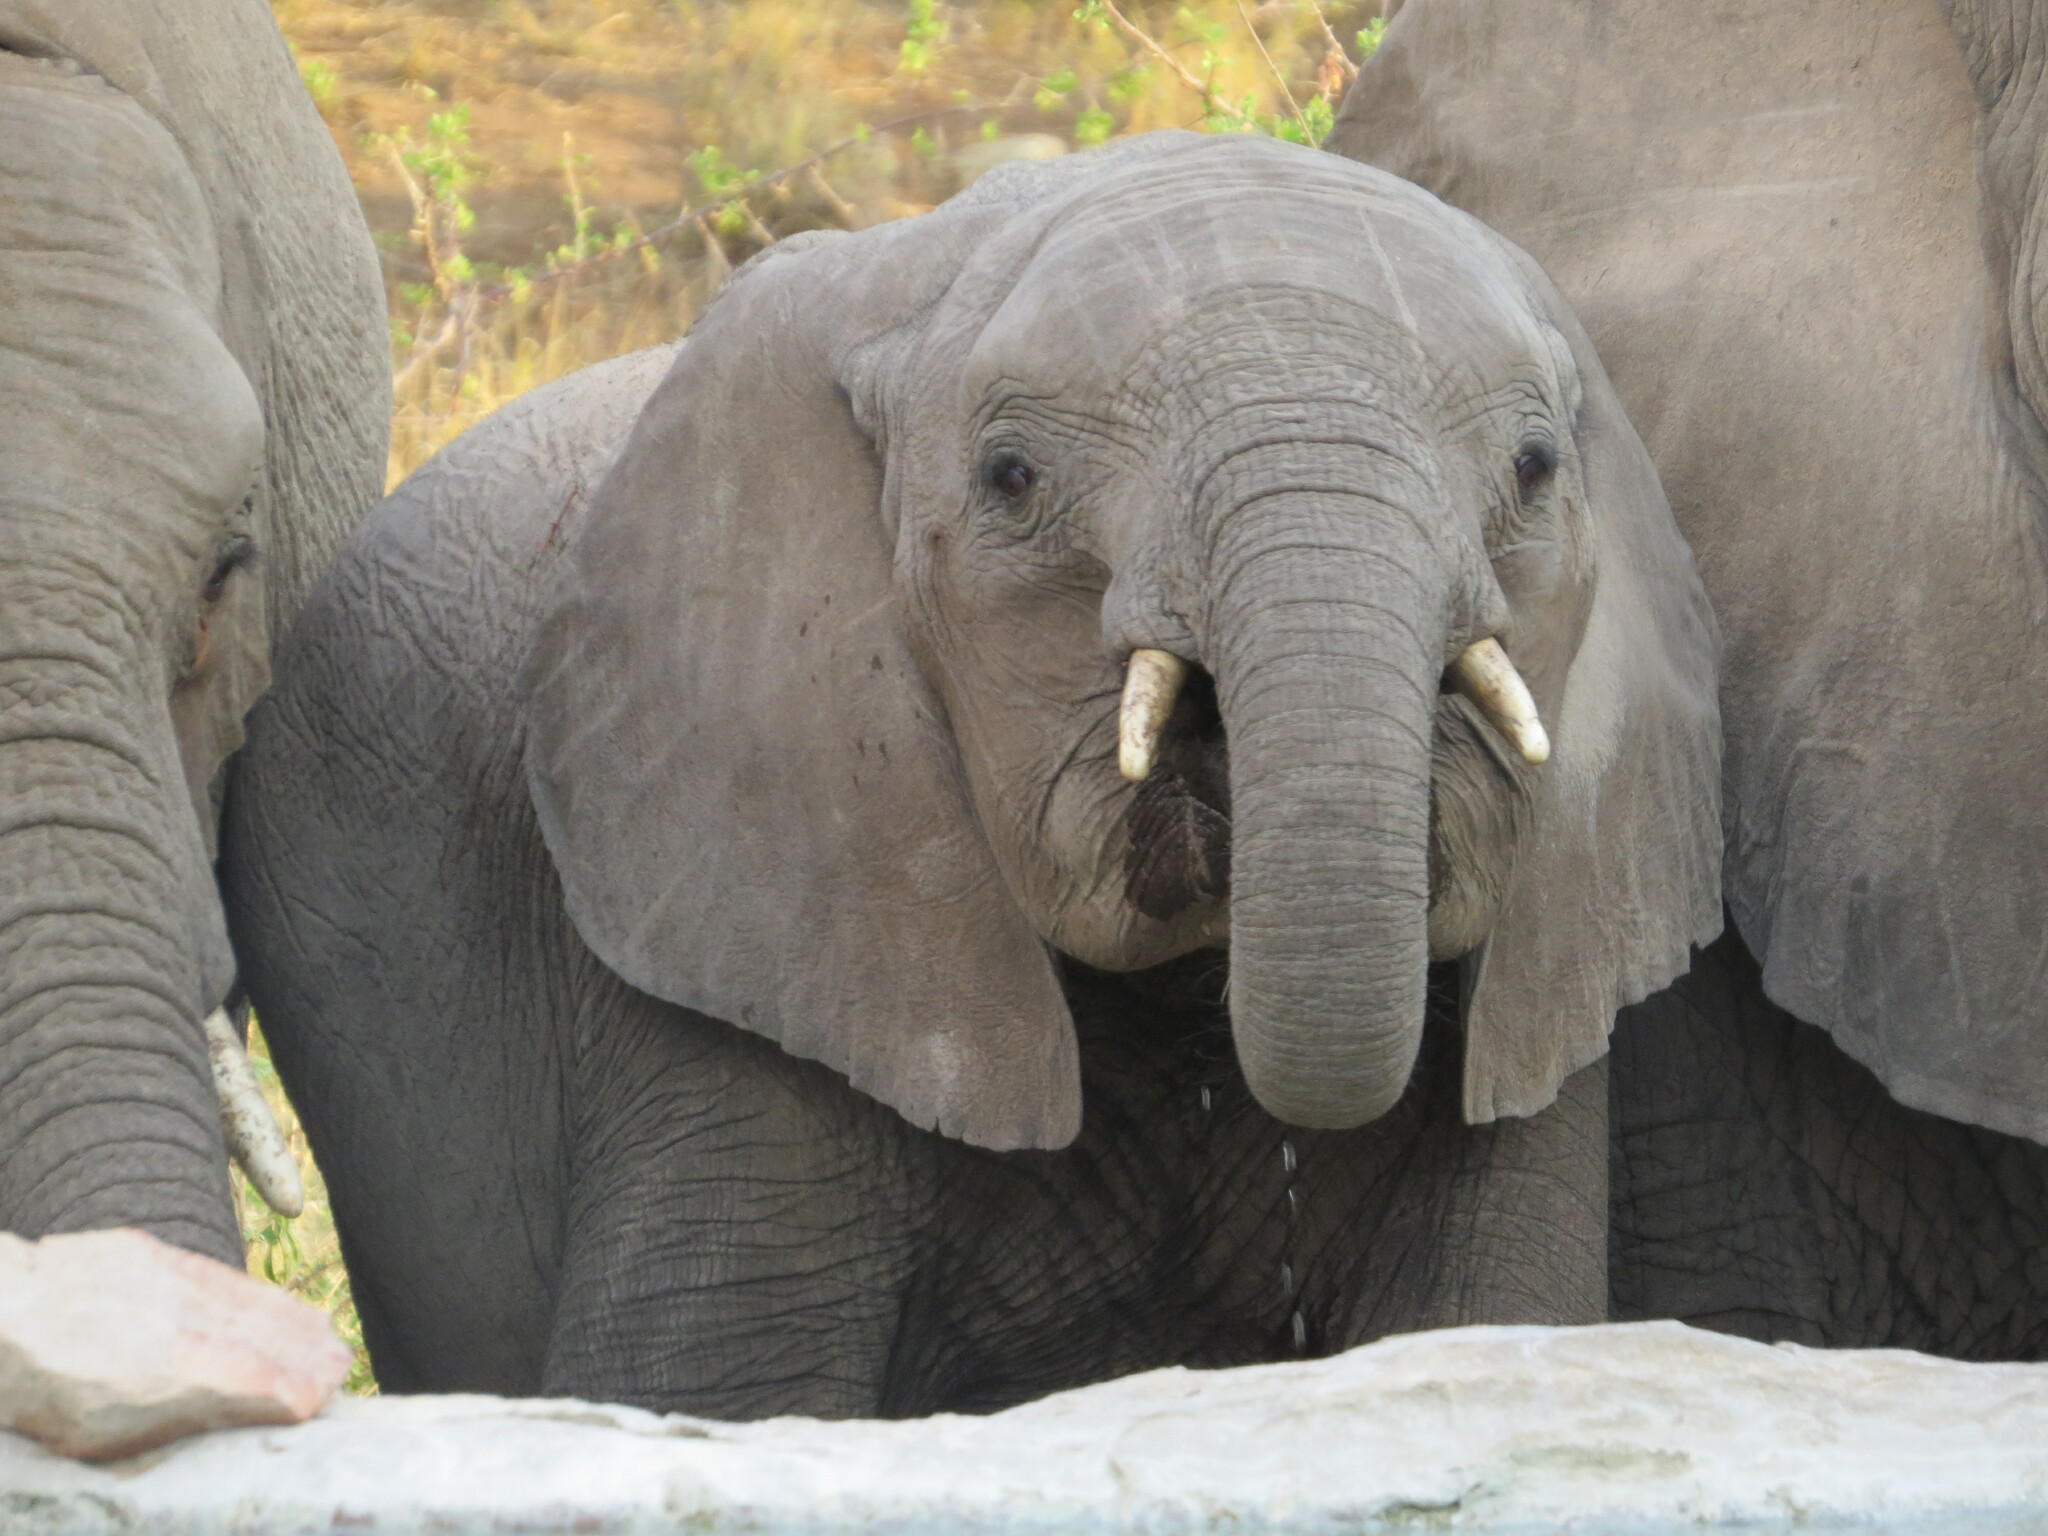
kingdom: Animalia
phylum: Chordata
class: Mammalia
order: Proboscidea
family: Elephantidae
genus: Loxodonta
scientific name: Loxodonta africana
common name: African elephant
